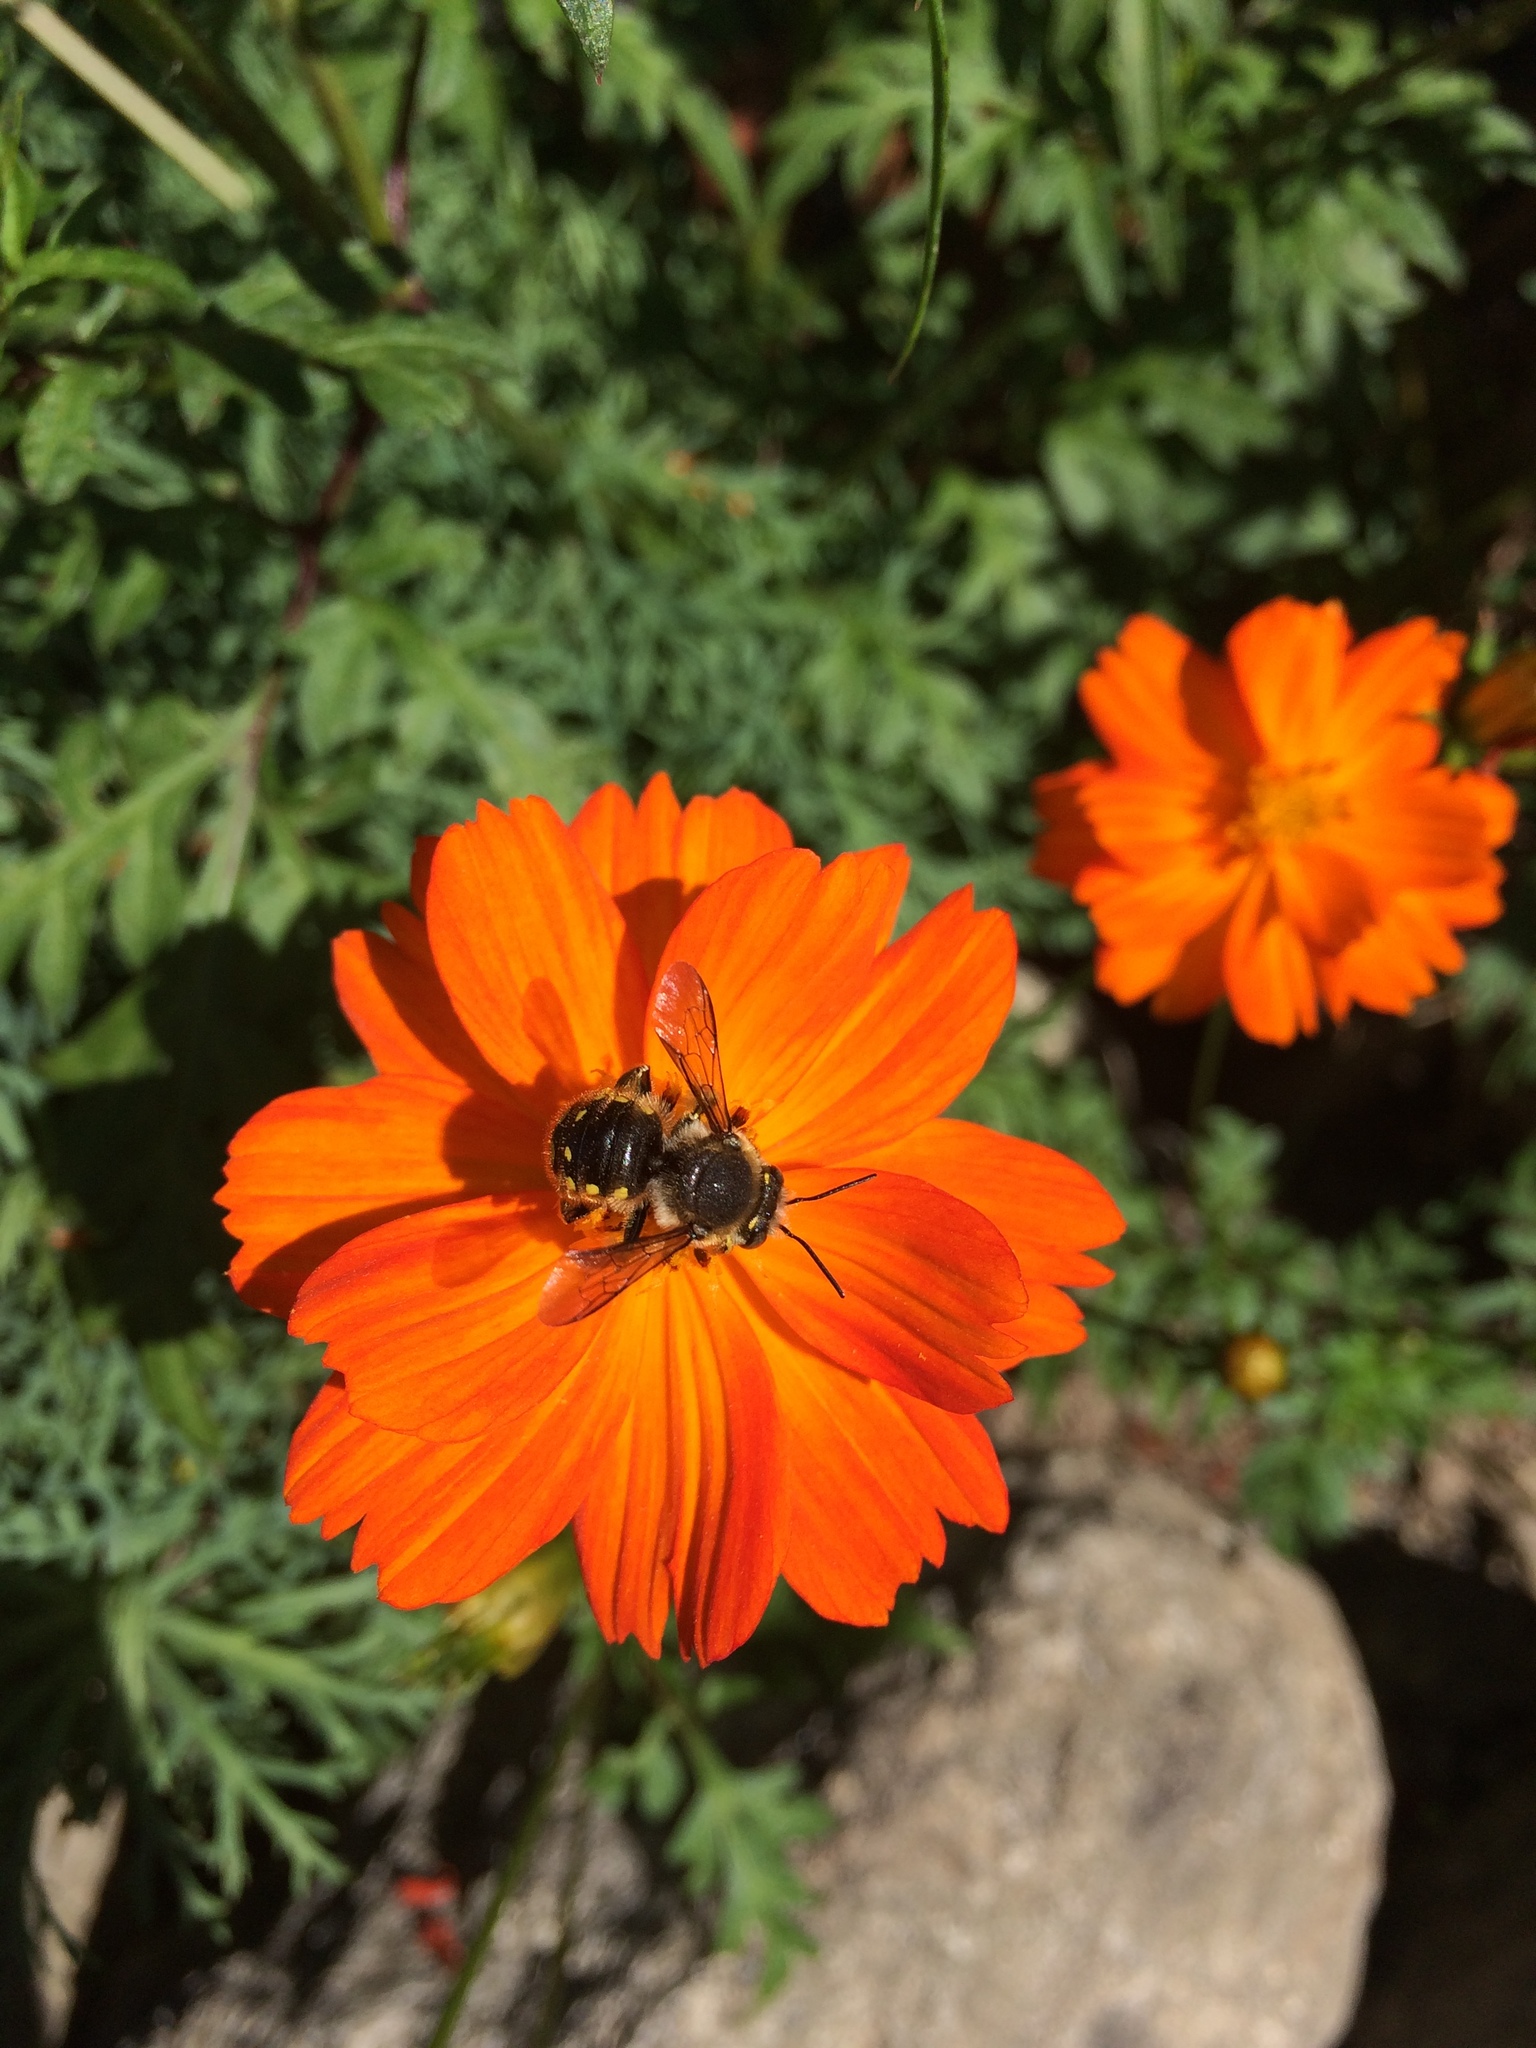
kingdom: Animalia
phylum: Arthropoda
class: Insecta
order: Hymenoptera
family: Megachilidae
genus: Anthidium
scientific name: Anthidium manicatum
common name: Wool carder bee
